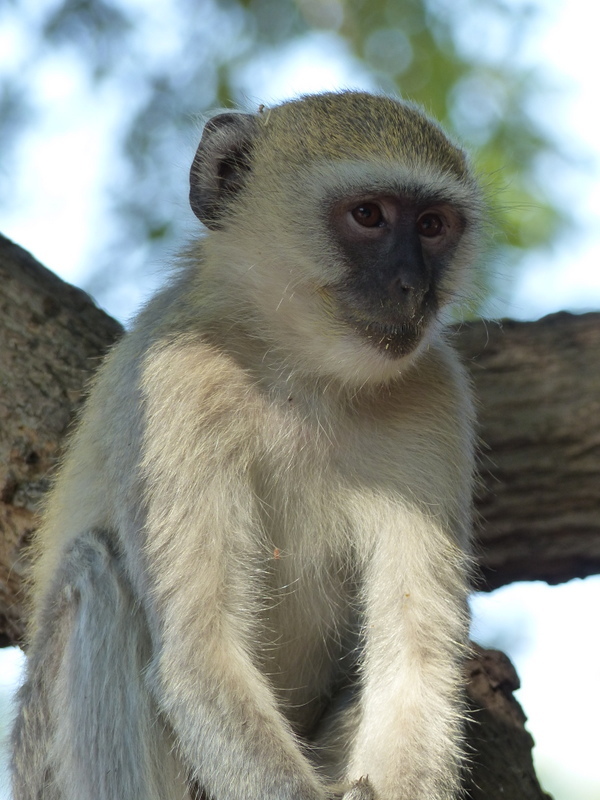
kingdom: Animalia
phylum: Chordata
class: Mammalia
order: Primates
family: Cercopithecidae
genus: Chlorocebus
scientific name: Chlorocebus pygerythrus
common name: Vervet monkey
